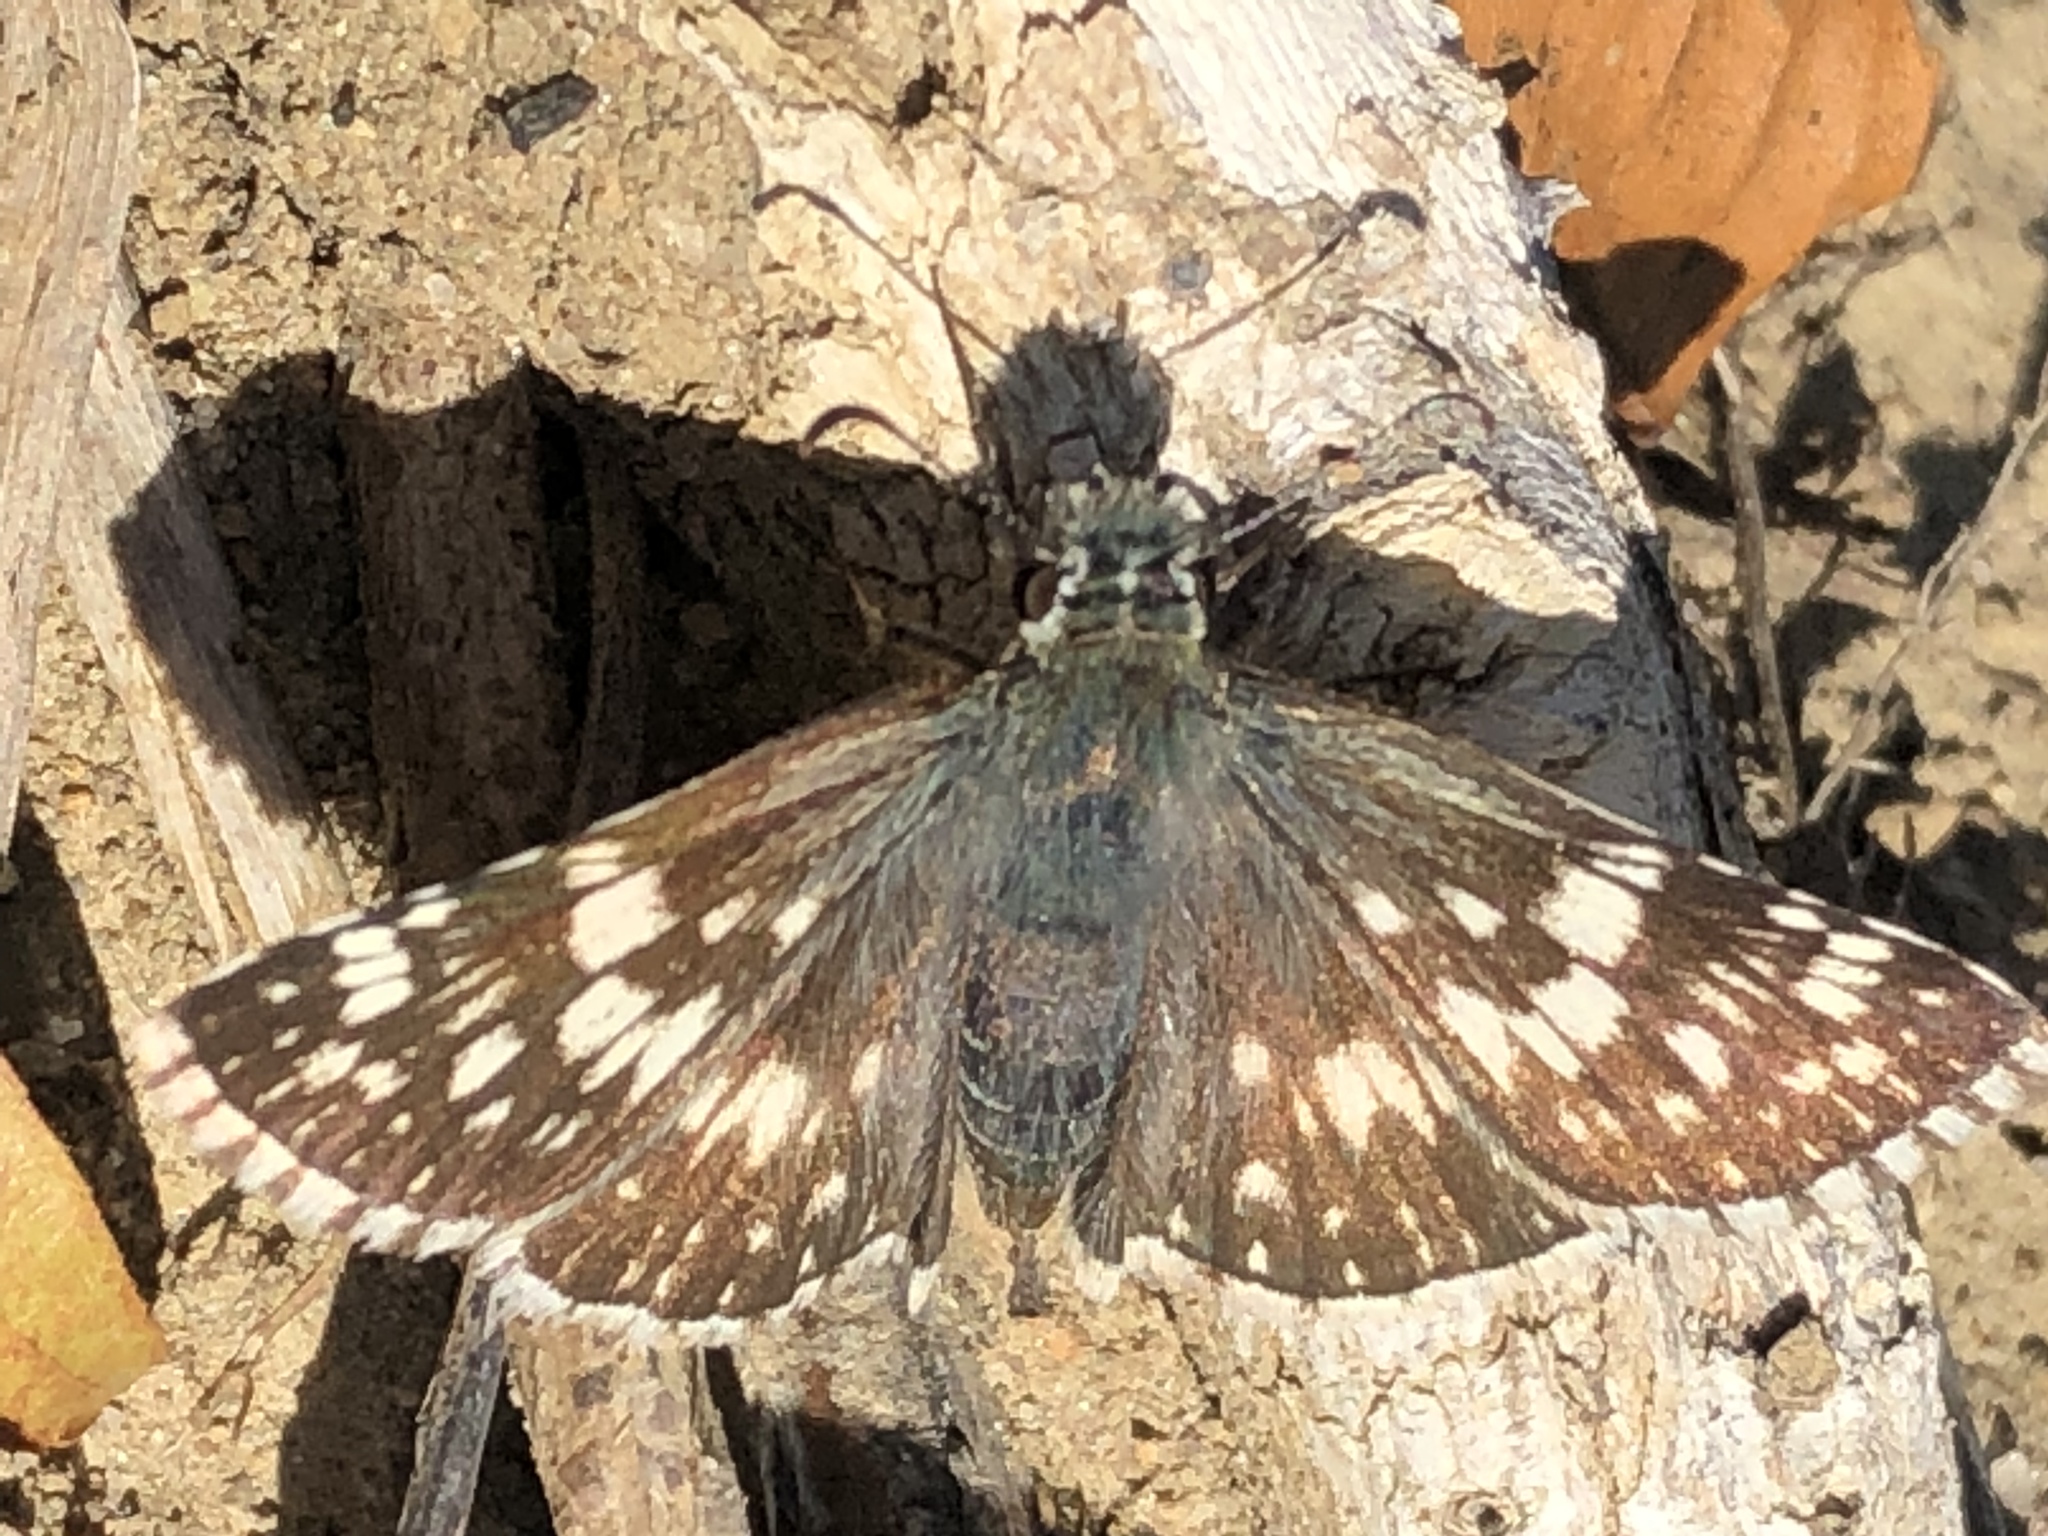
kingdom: Animalia
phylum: Arthropoda
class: Insecta
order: Lepidoptera
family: Hesperiidae
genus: Burnsius
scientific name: Burnsius communis
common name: Common checkered-skipper
